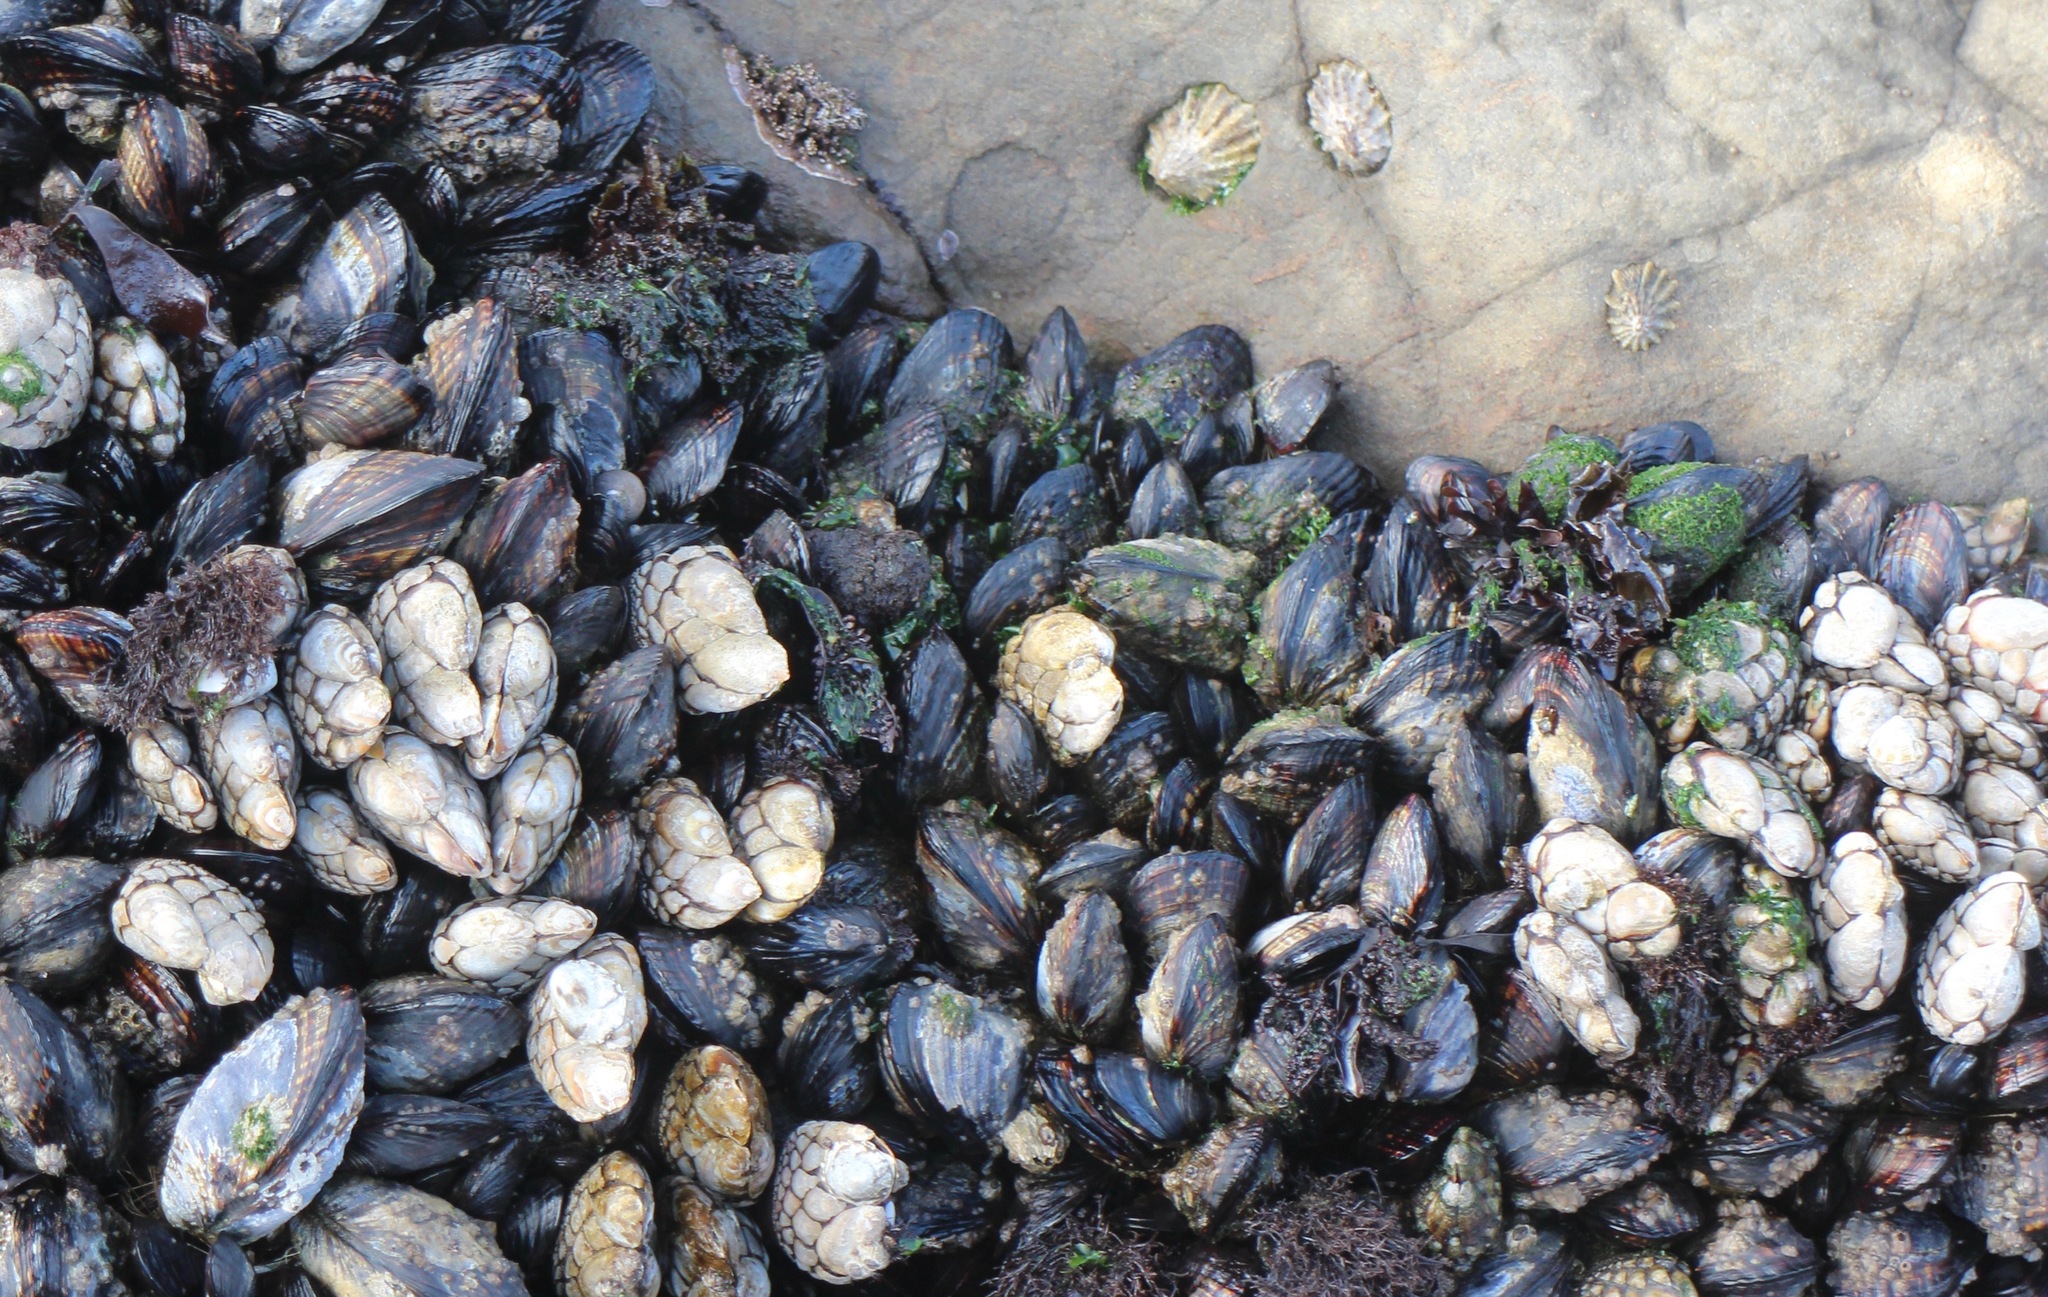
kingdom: Animalia
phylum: Arthropoda
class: Maxillopoda
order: Pedunculata
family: Pollicipedidae
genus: Pollicipes
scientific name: Pollicipes polymerus
